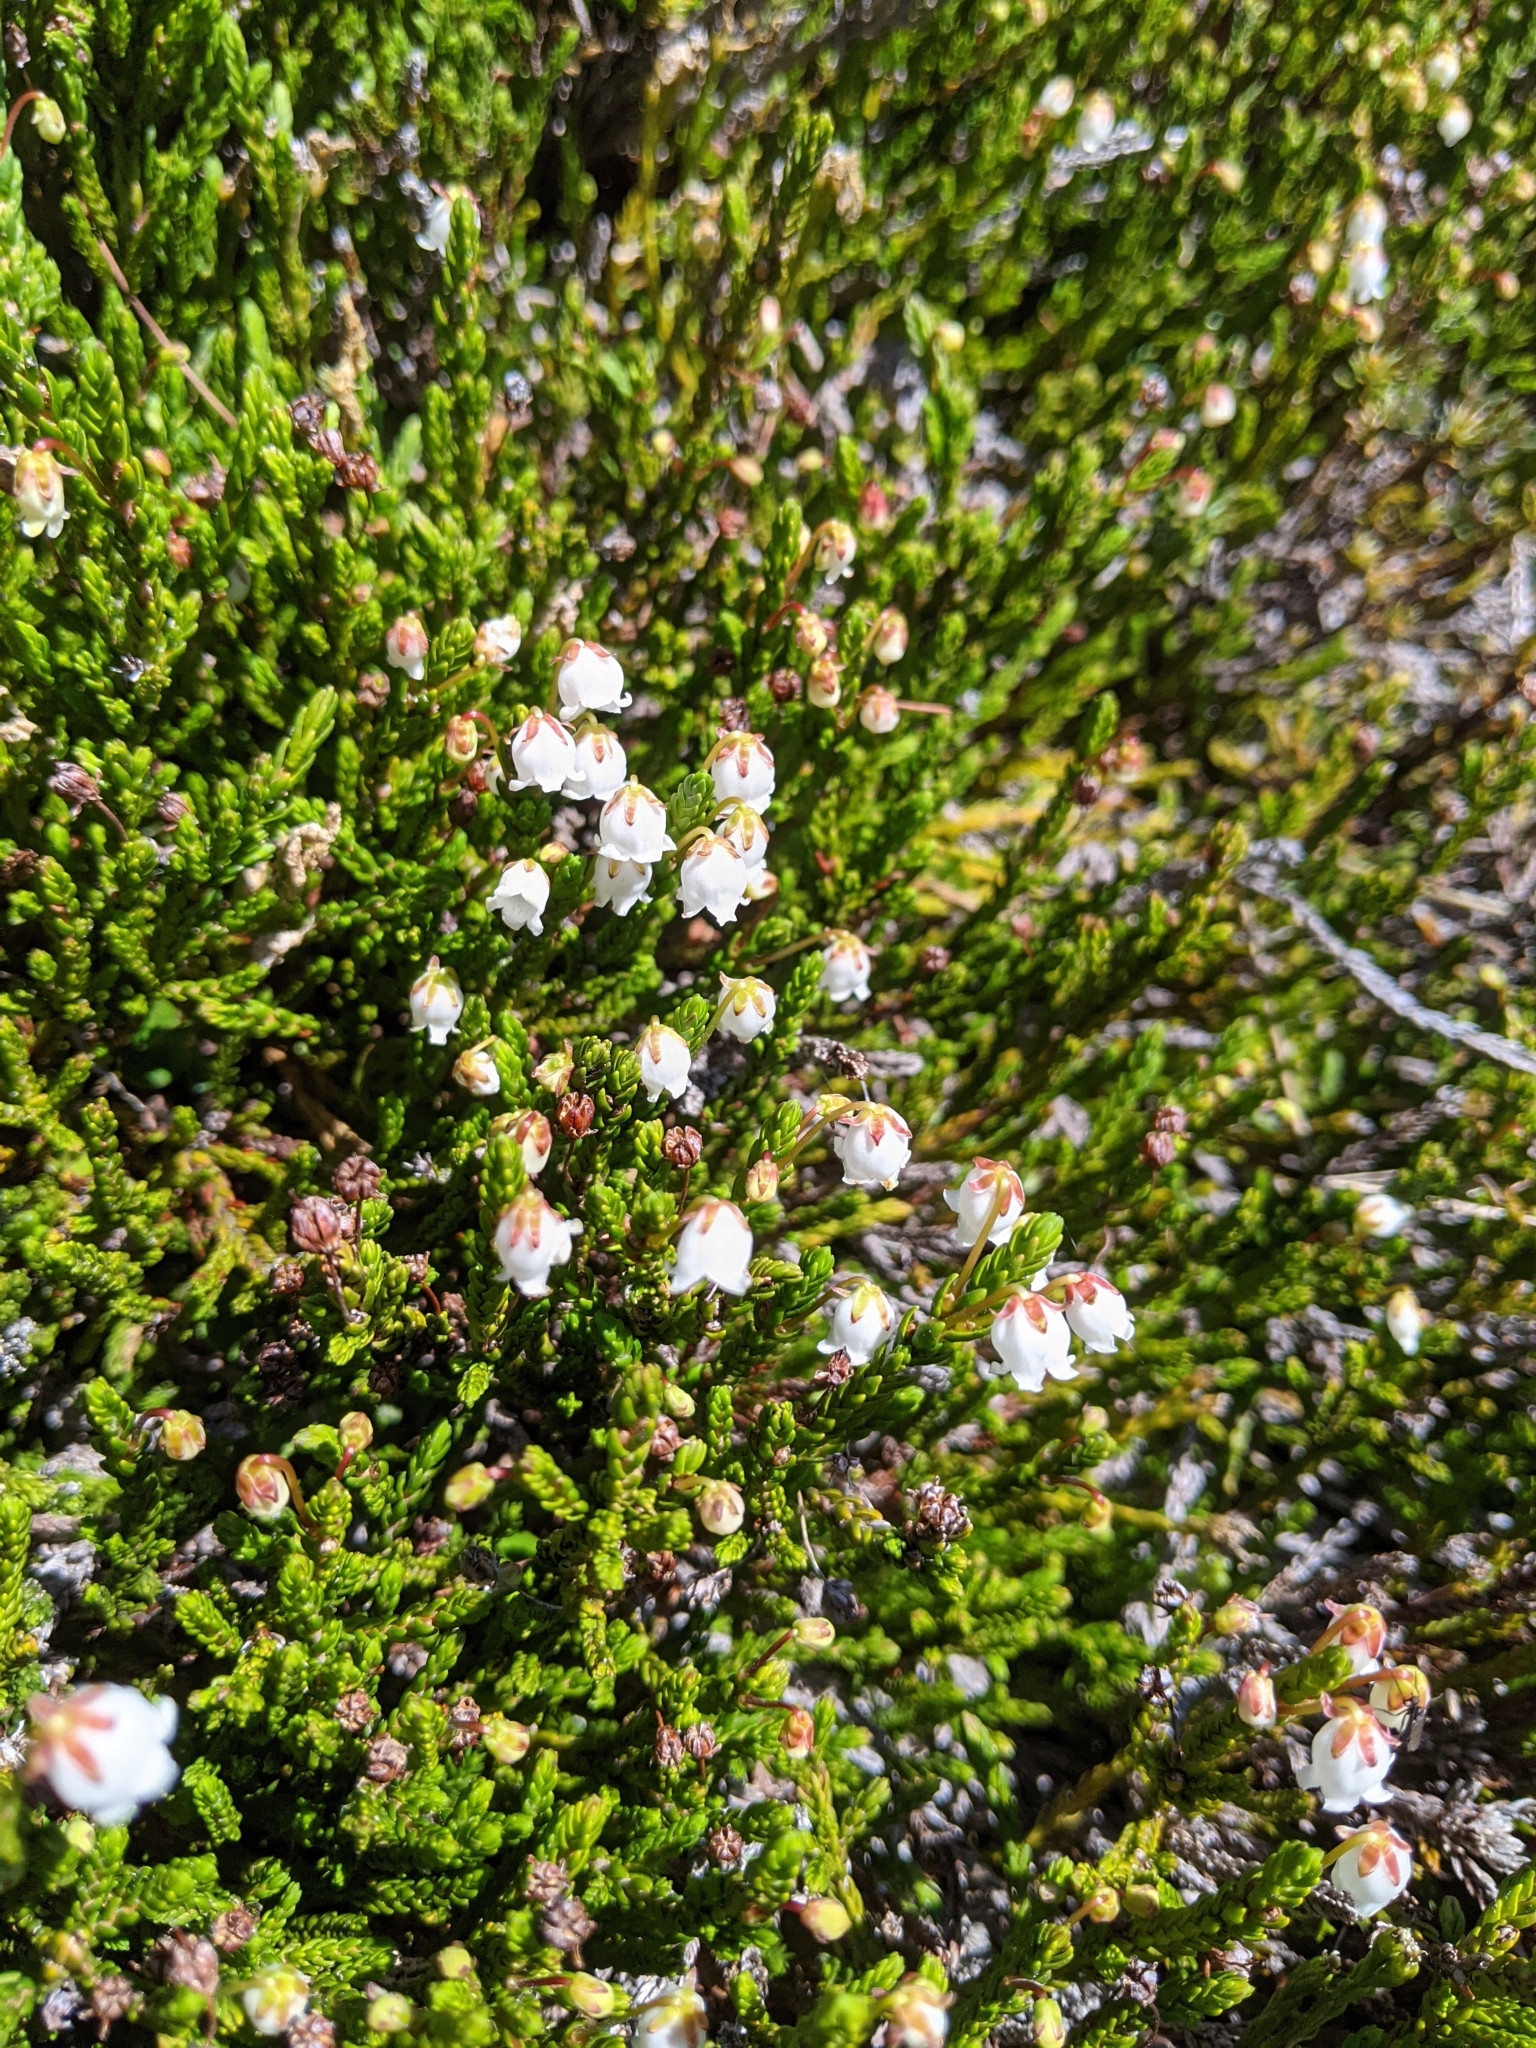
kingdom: Plantae
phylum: Tracheophyta
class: Magnoliopsida
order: Ericales
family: Ericaceae
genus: Cassiope
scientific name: Cassiope mertensiana
